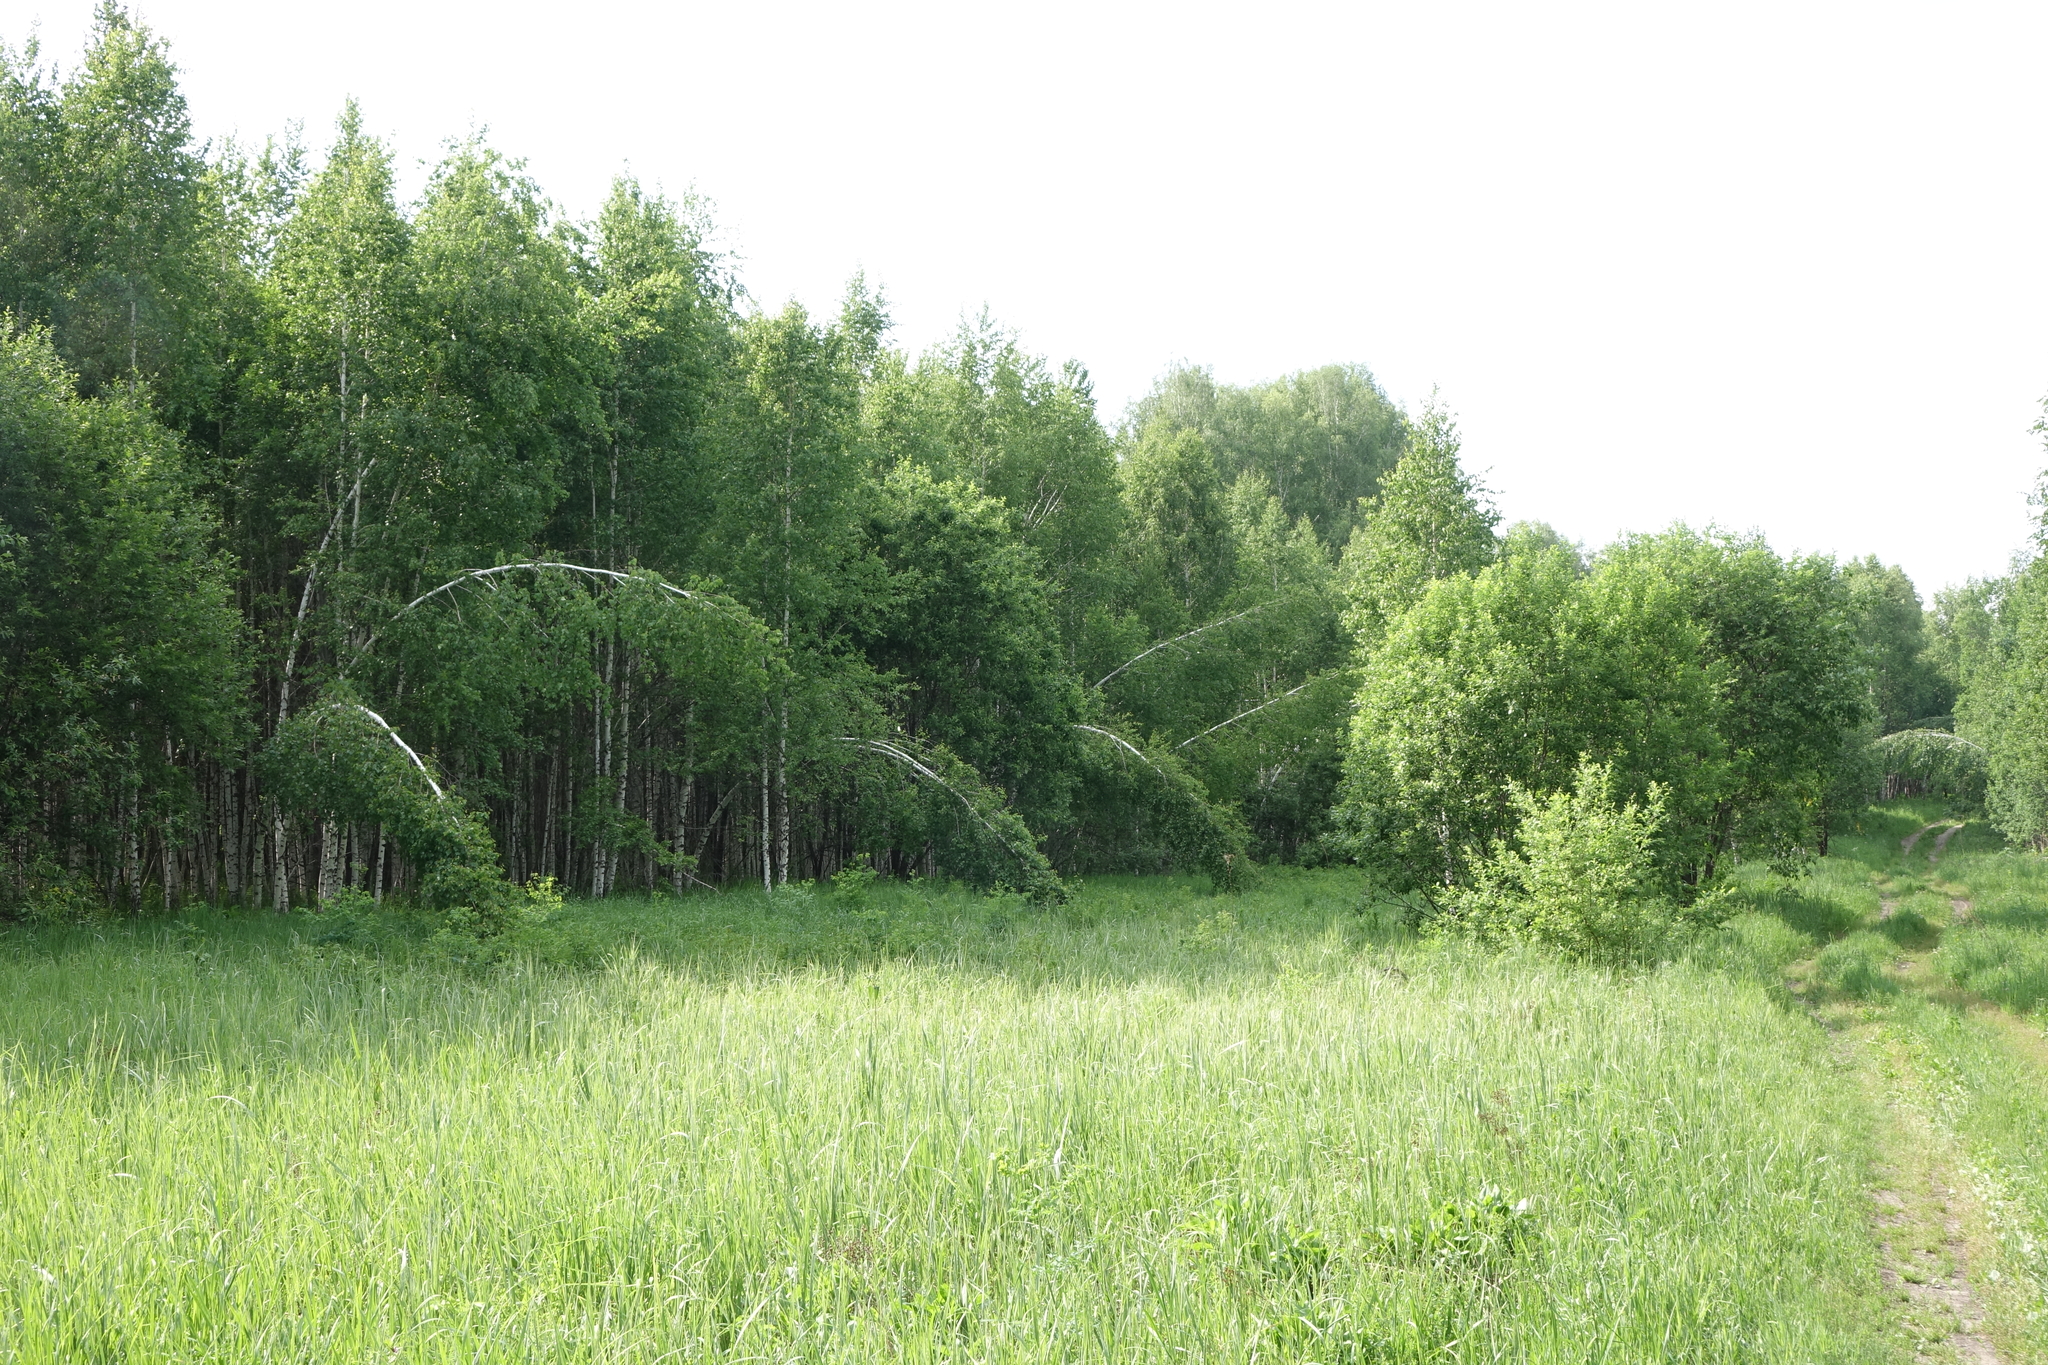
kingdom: Plantae
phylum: Tracheophyta
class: Magnoliopsida
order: Fagales
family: Betulaceae
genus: Betula
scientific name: Betula pendula
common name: Silver birch
